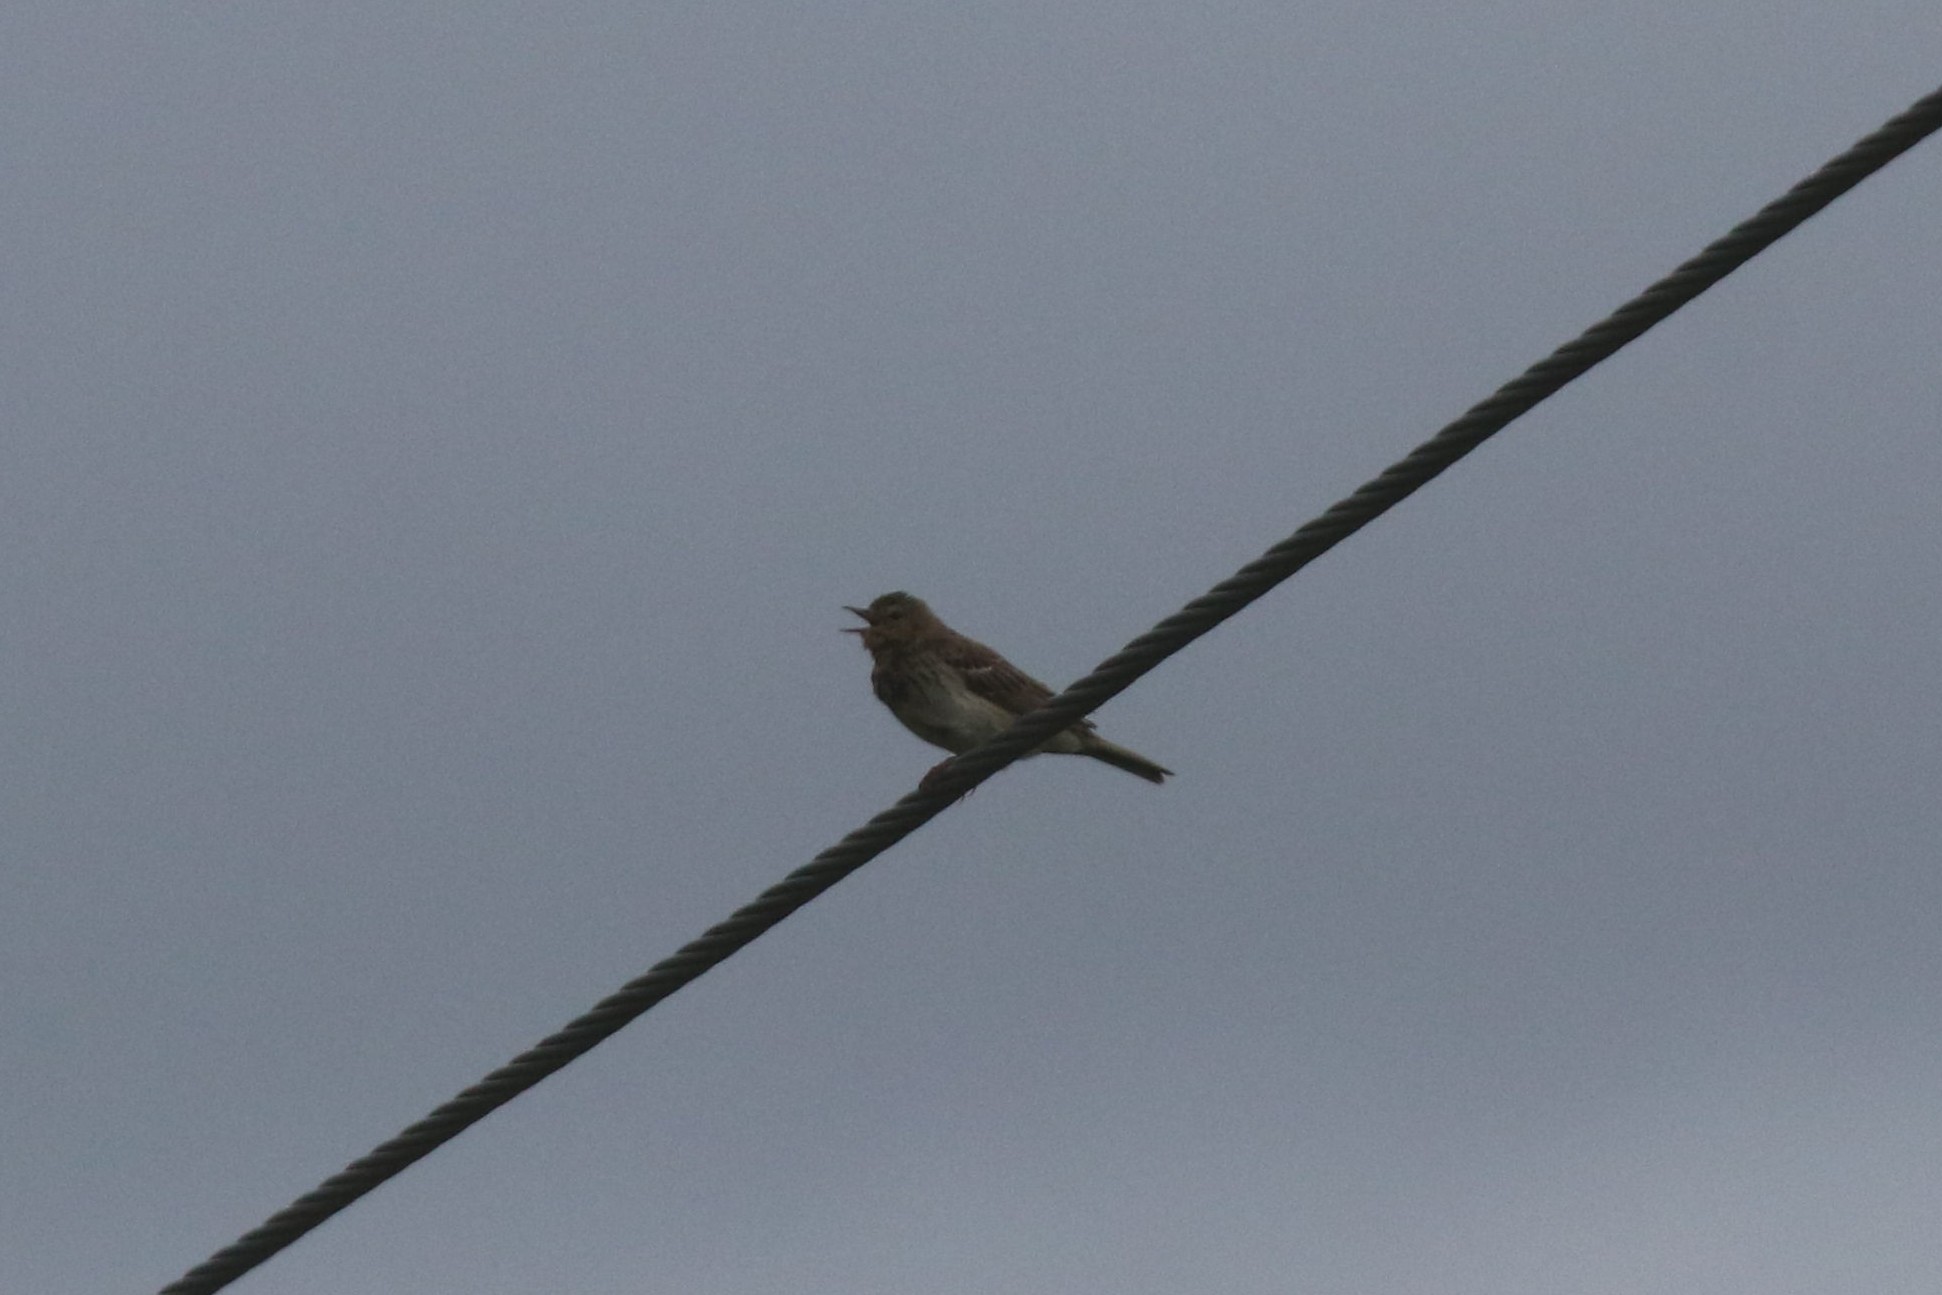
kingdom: Animalia
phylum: Chordata
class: Aves
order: Passeriformes
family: Motacillidae
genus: Anthus
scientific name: Anthus trivialis
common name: Tree pipit
